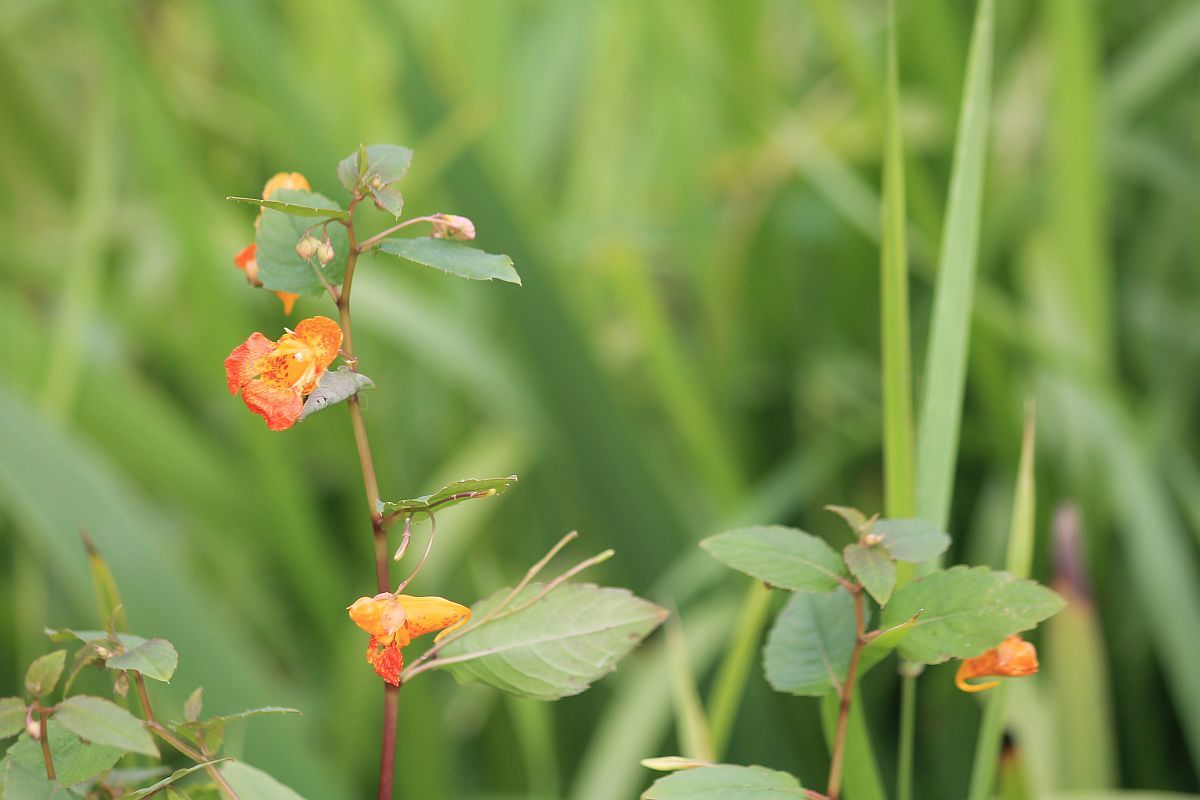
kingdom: Plantae
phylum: Tracheophyta
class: Magnoliopsida
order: Ericales
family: Balsaminaceae
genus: Impatiens
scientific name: Impatiens capensis
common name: Orange balsam
